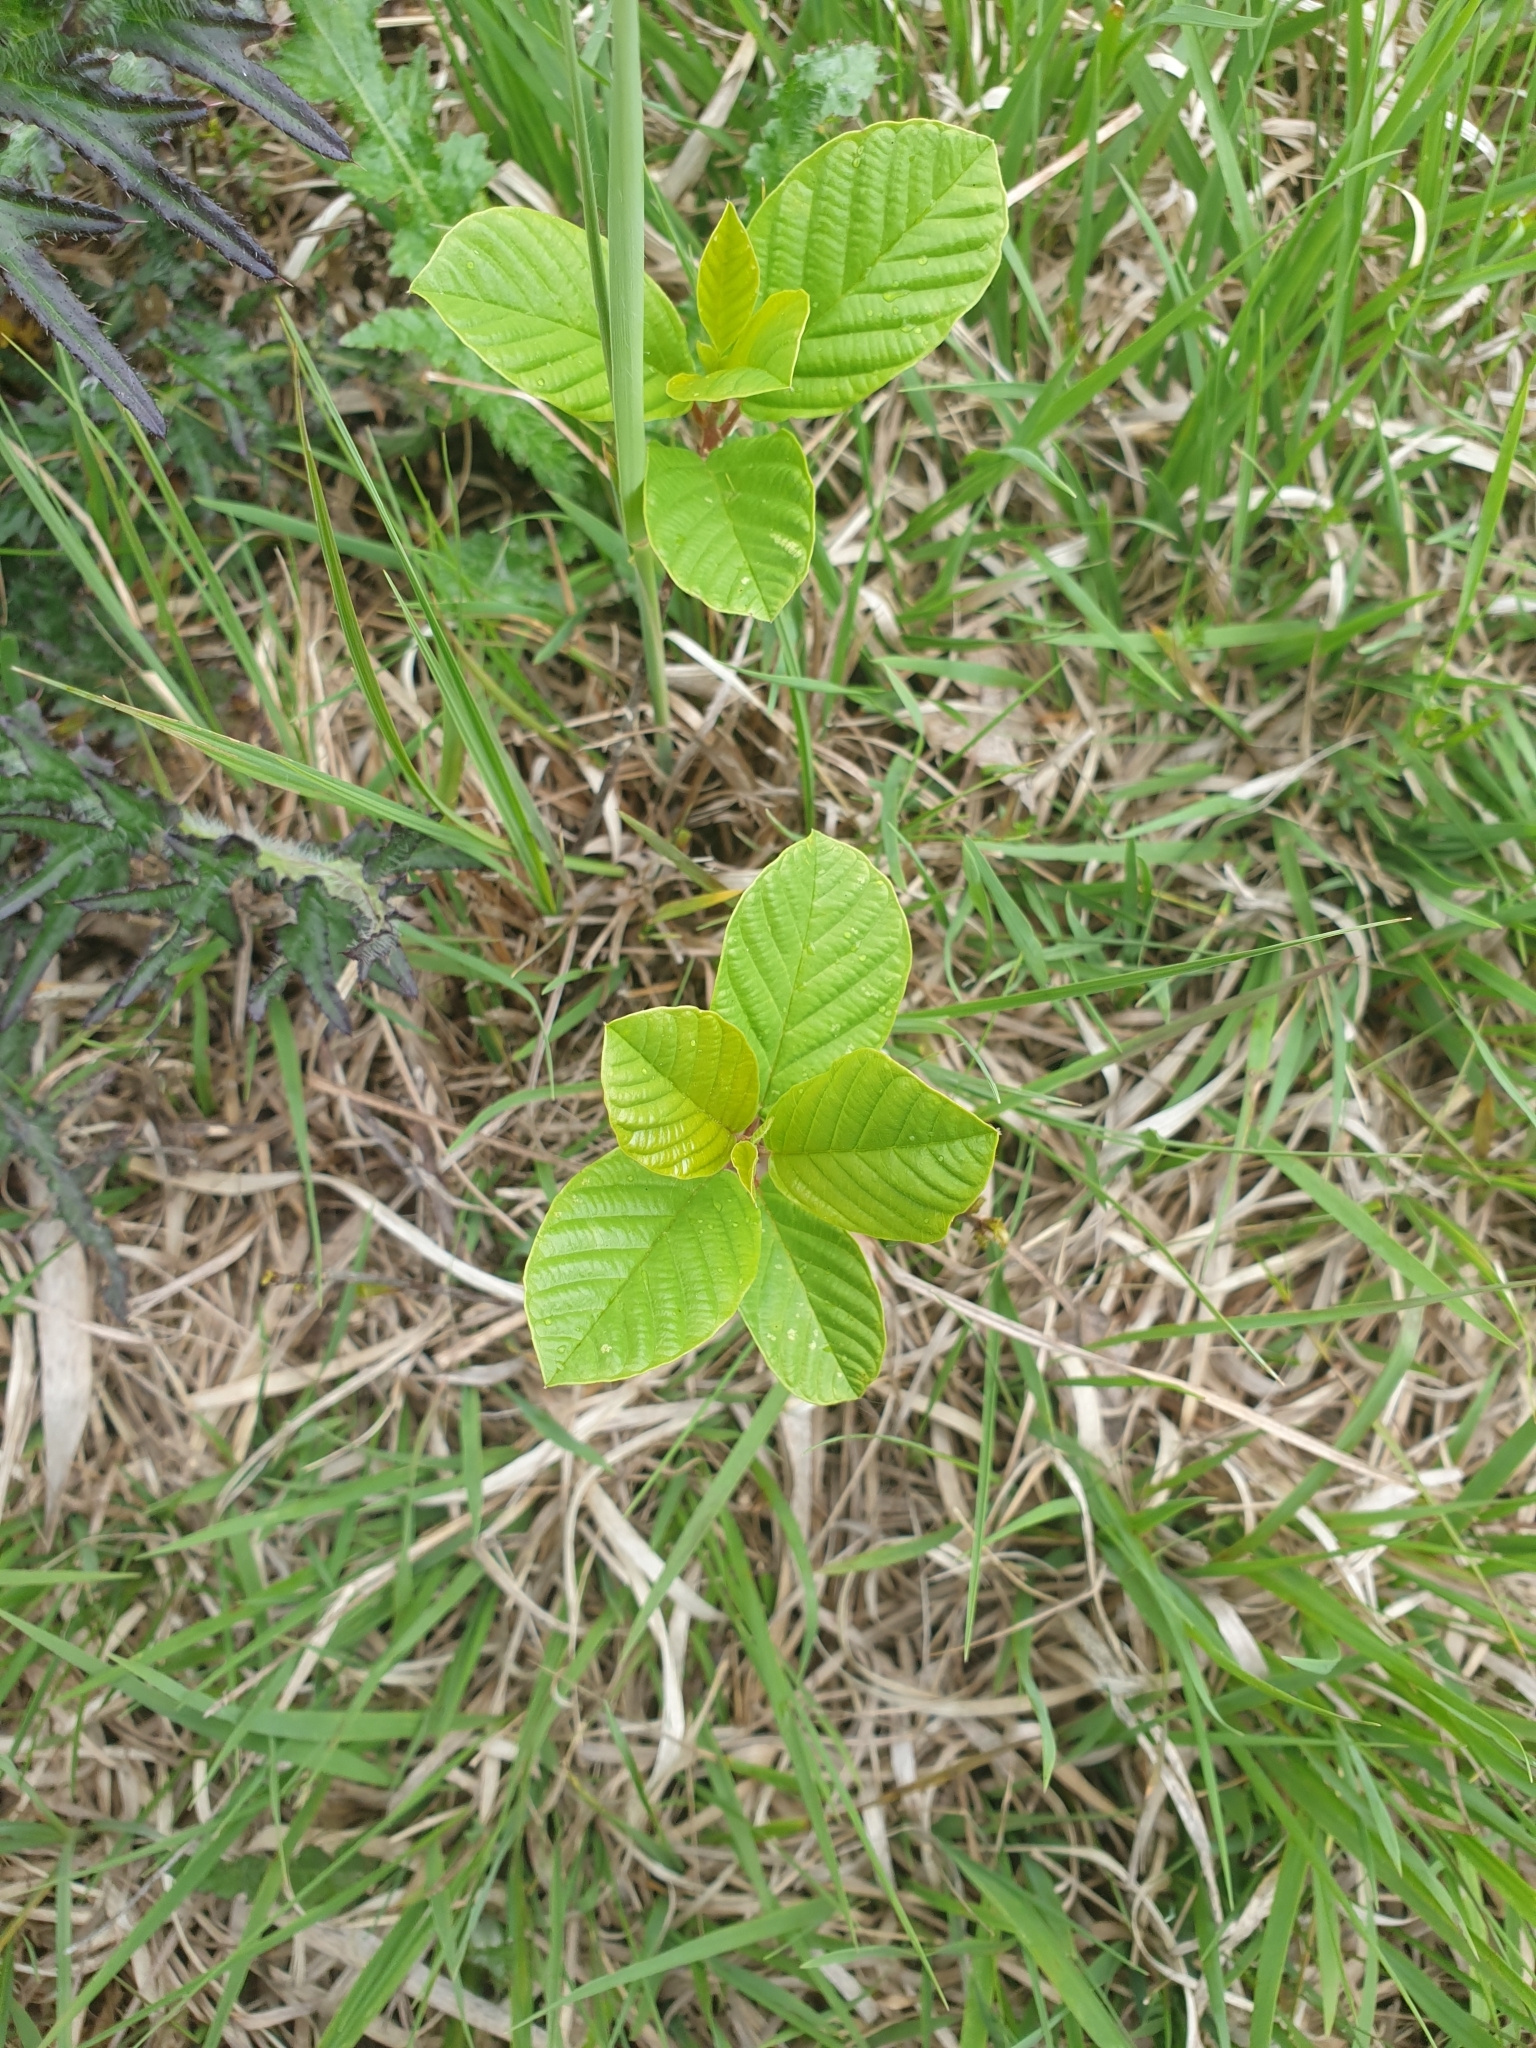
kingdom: Plantae
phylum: Tracheophyta
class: Magnoliopsida
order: Fagales
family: Betulaceae
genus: Alnus
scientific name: Alnus glutinosa
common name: Black alder
